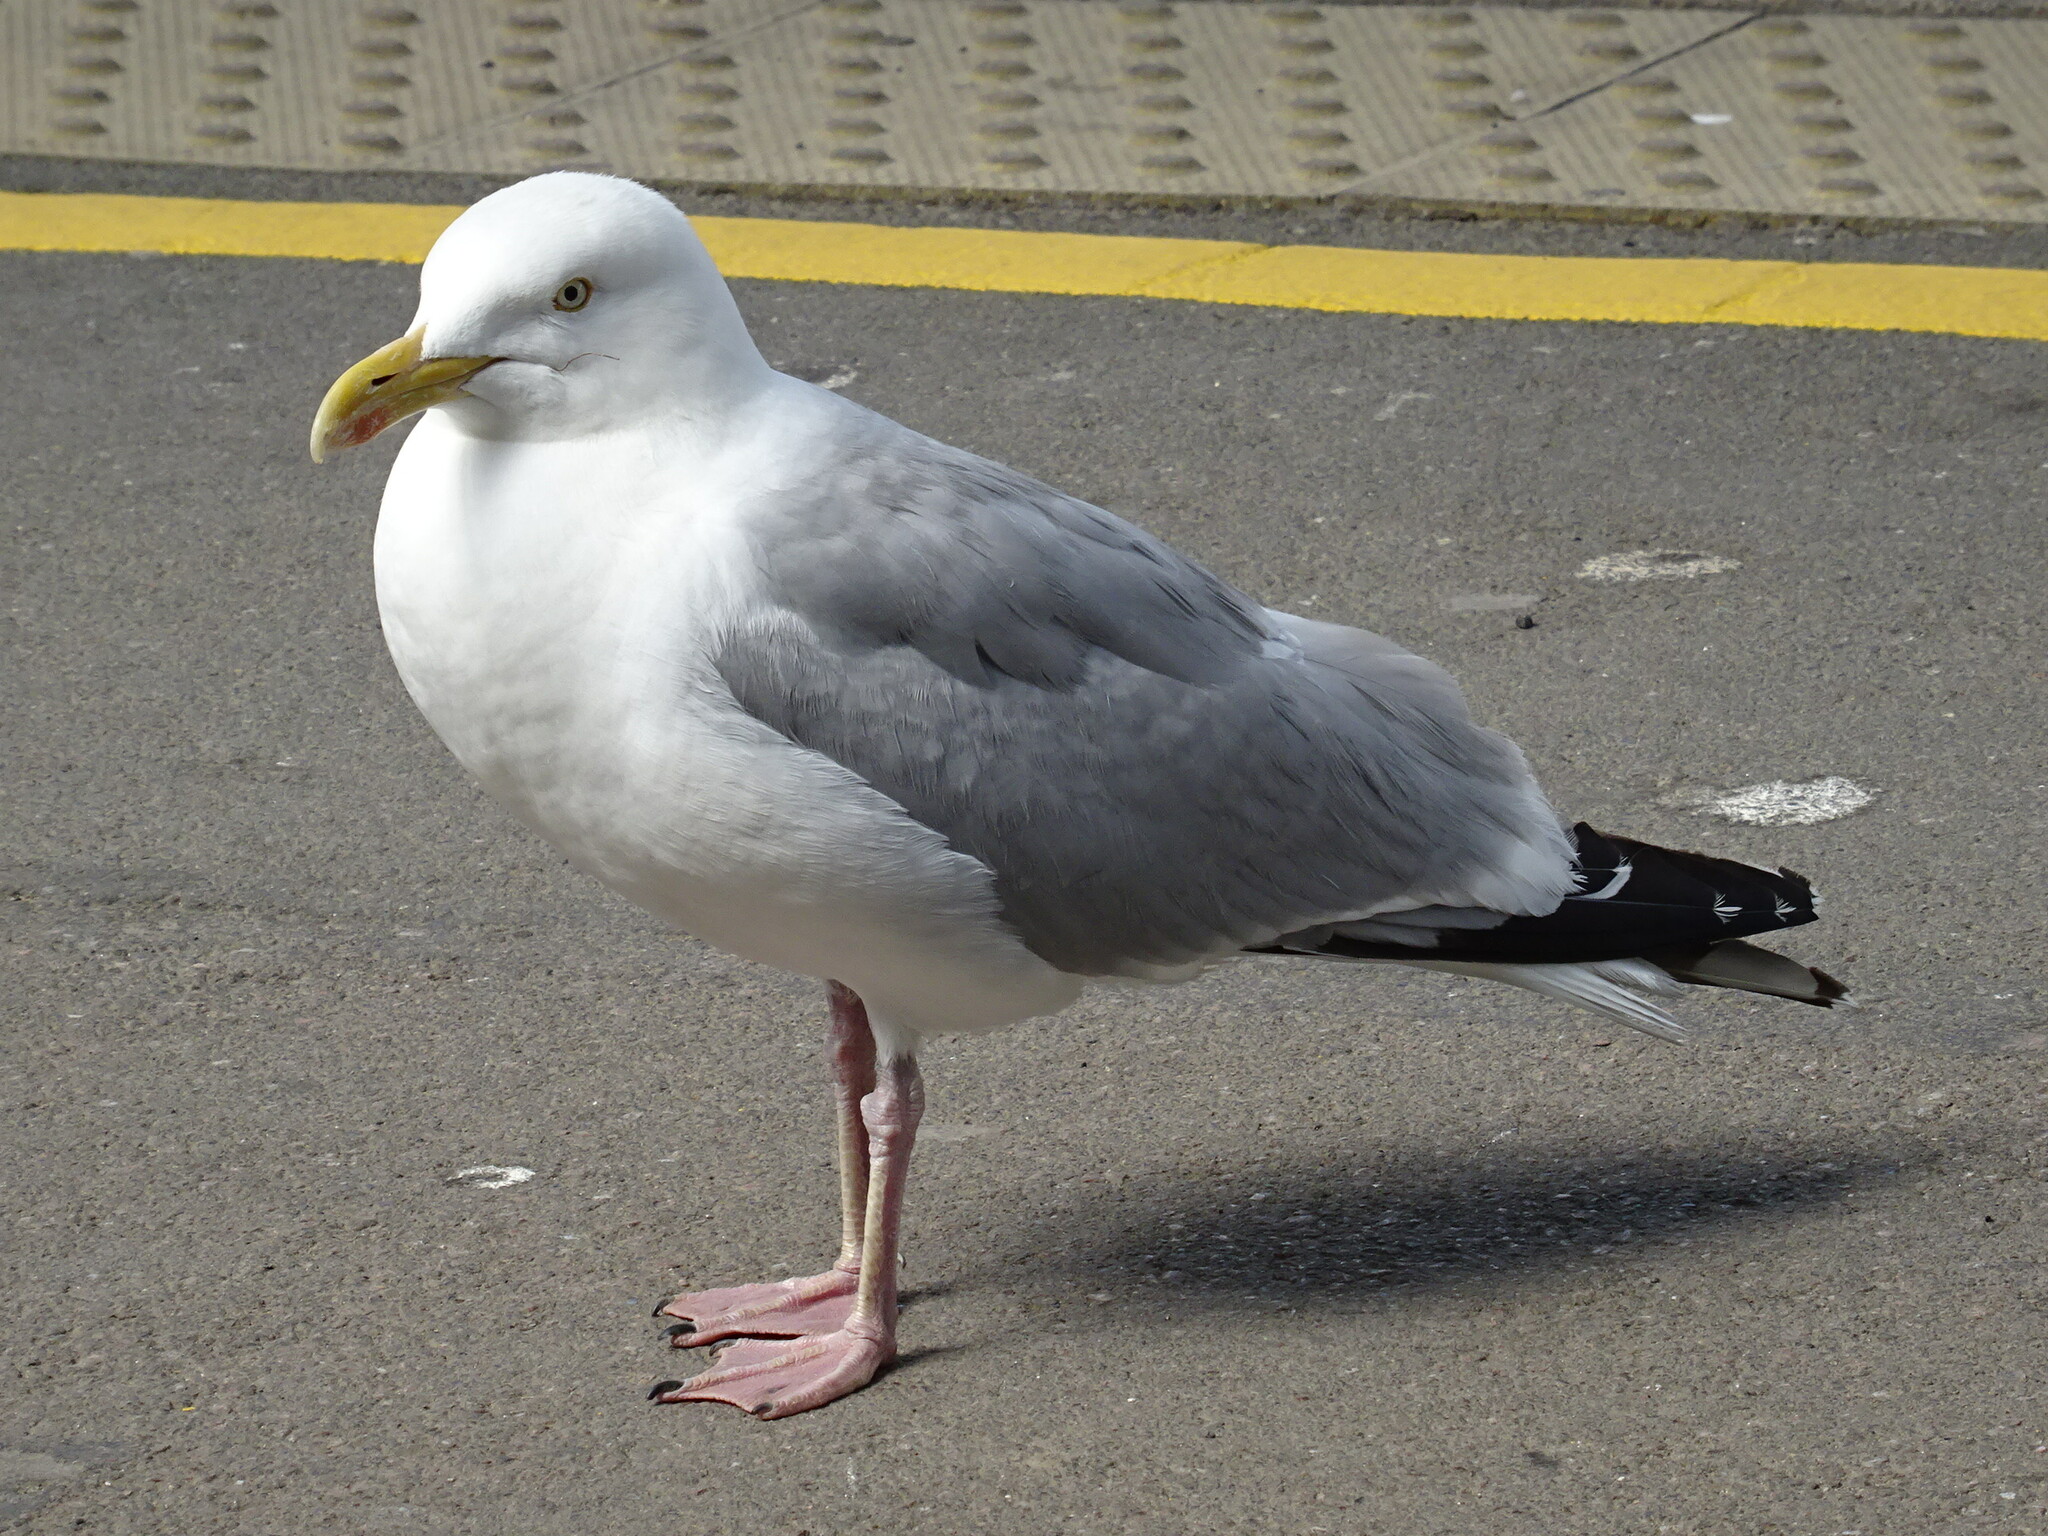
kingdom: Animalia
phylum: Chordata
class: Aves
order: Charadriiformes
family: Laridae
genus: Larus
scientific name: Larus argentatus
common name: Herring gull
